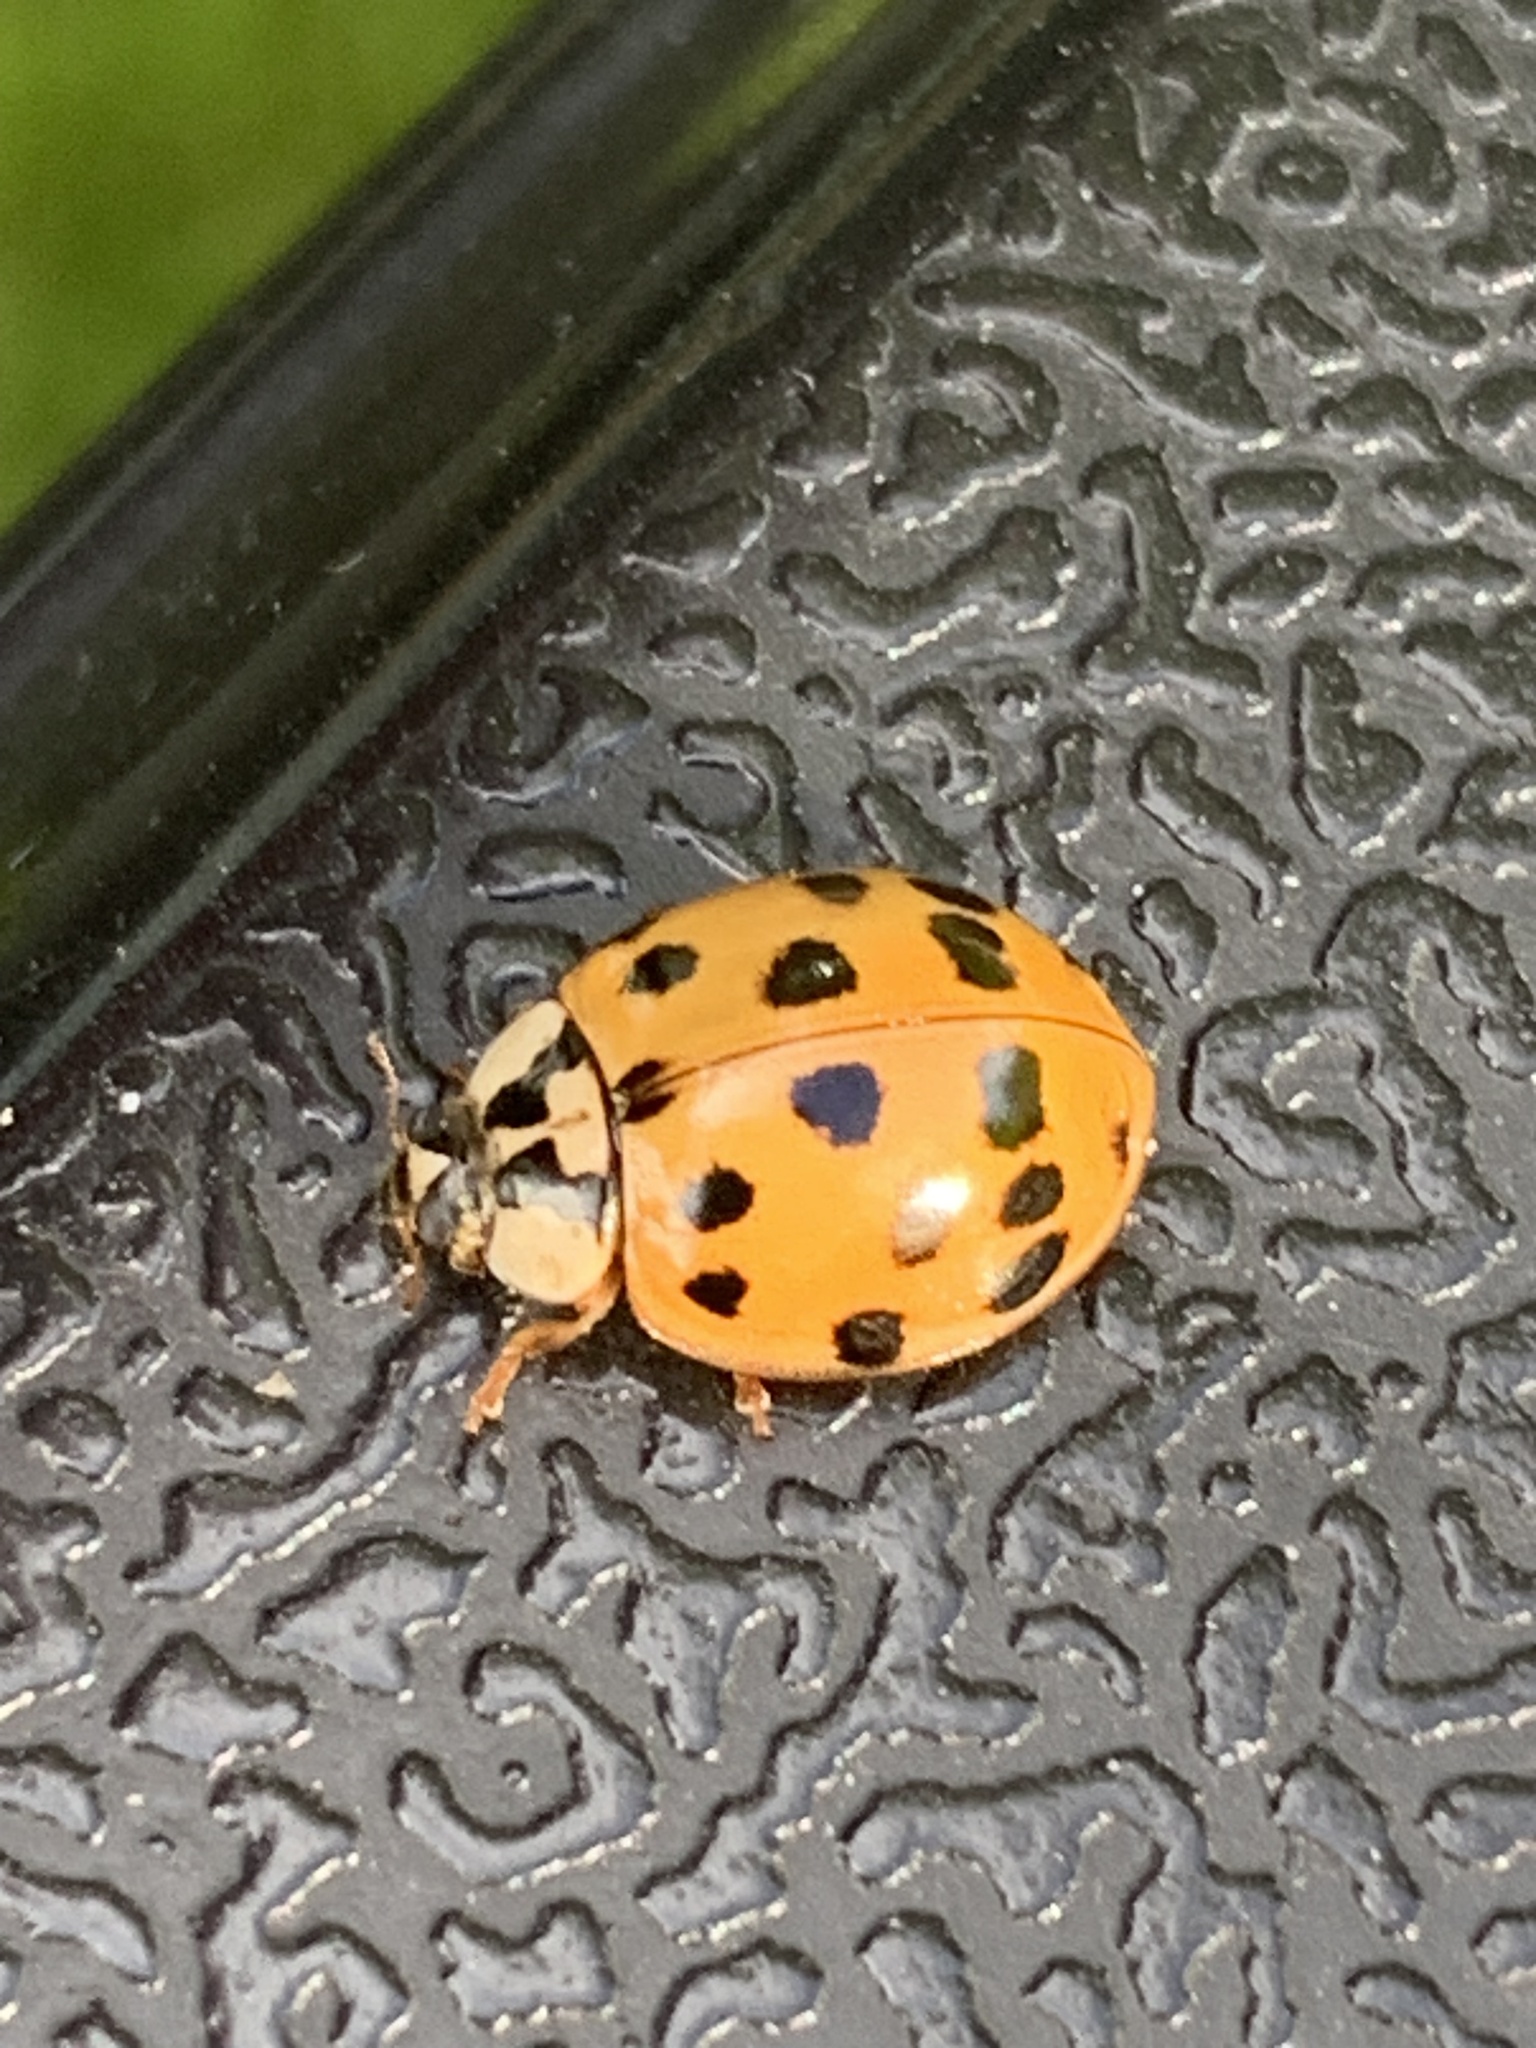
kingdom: Animalia
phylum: Arthropoda
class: Insecta
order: Coleoptera
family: Coccinellidae
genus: Harmonia
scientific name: Harmonia axyridis
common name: Harlequin ladybird
